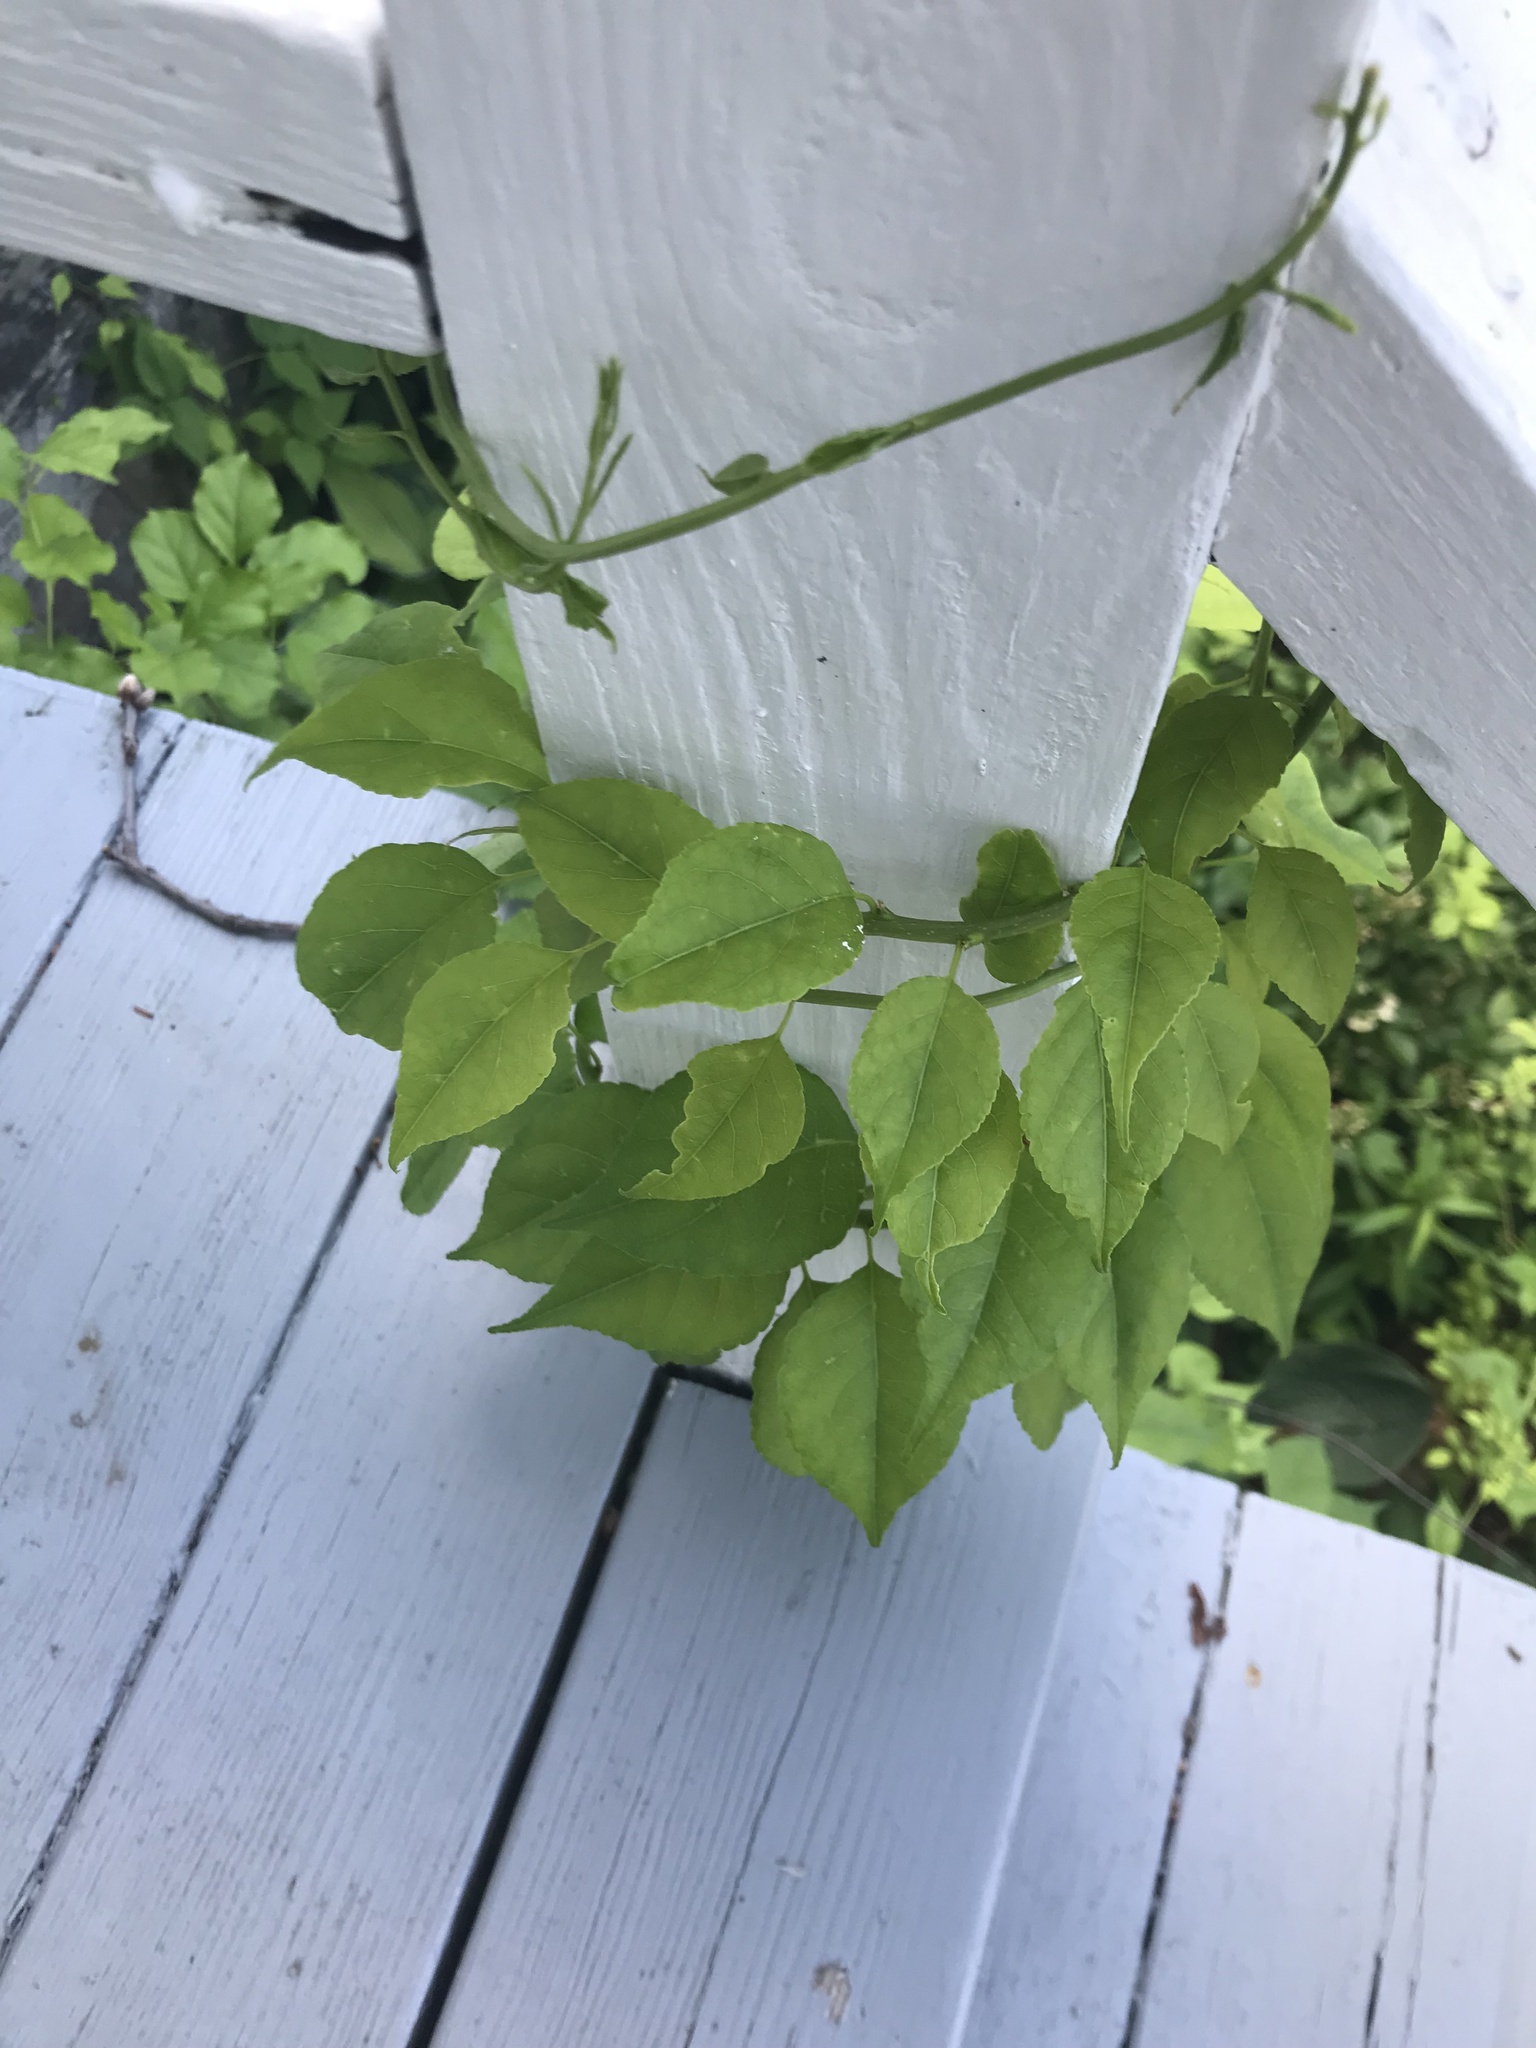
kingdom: Plantae
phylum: Tracheophyta
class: Magnoliopsida
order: Celastrales
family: Celastraceae
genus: Celastrus
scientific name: Celastrus orbiculatus
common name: Oriental bittersweet
